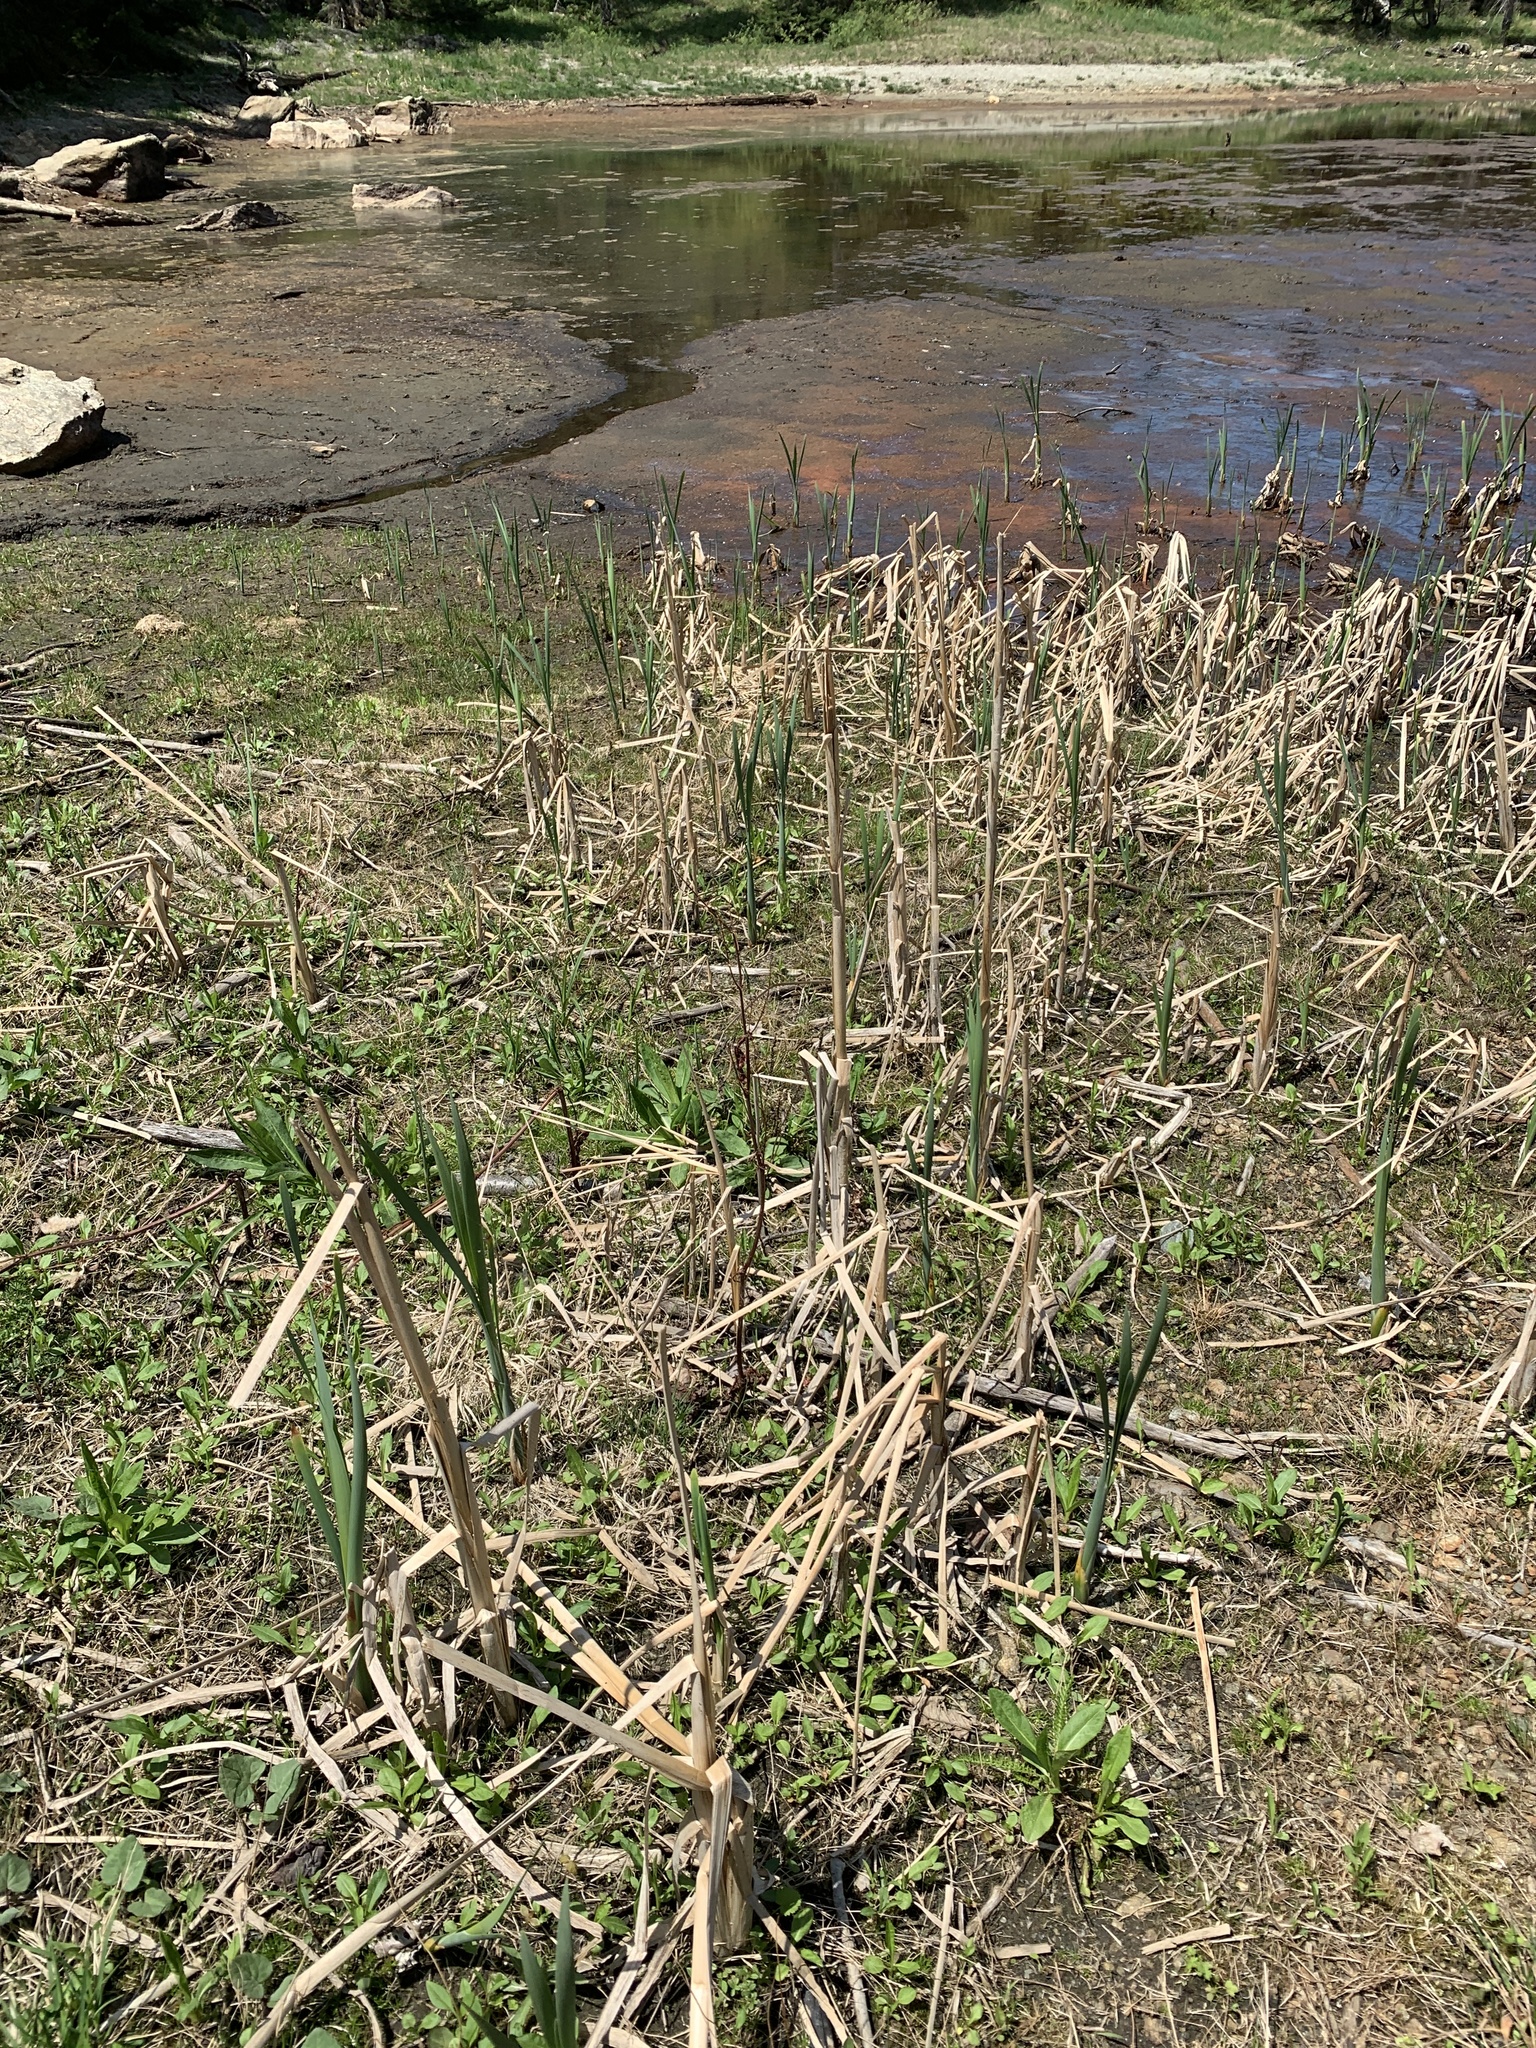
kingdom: Plantae
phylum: Tracheophyta
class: Liliopsida
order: Poales
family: Typhaceae
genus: Typha
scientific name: Typha
